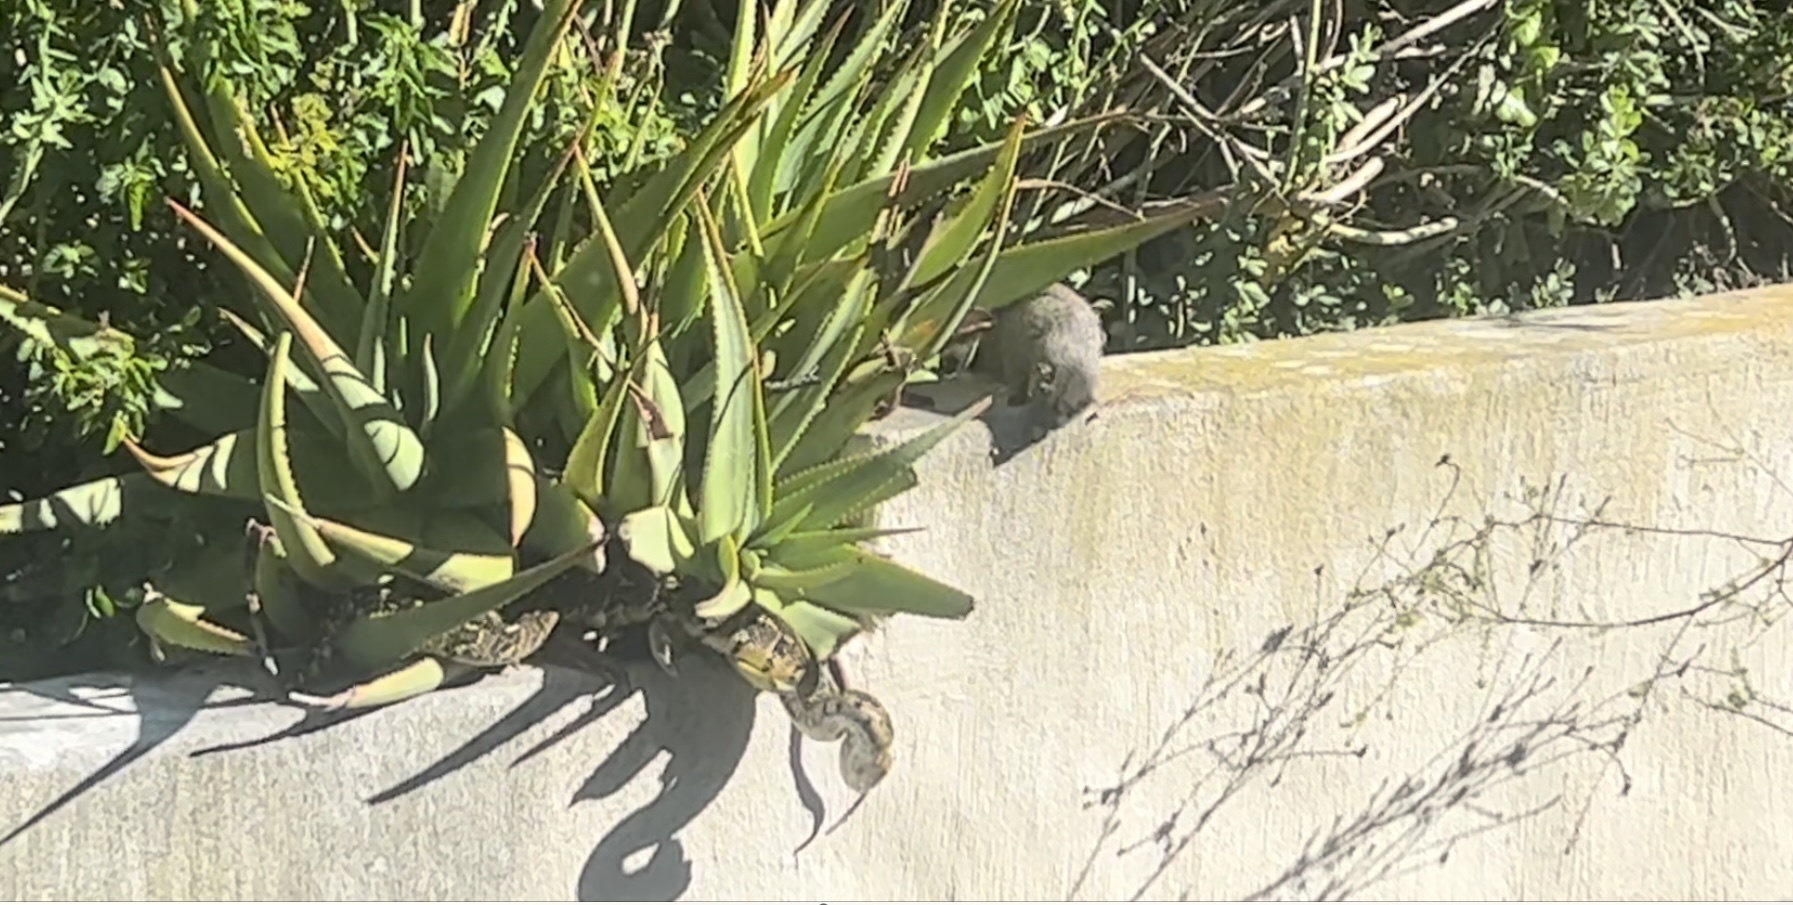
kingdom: Animalia
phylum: Chordata
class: Squamata
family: Viperidae
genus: Bitis
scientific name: Bitis arietans
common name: Puff adder
